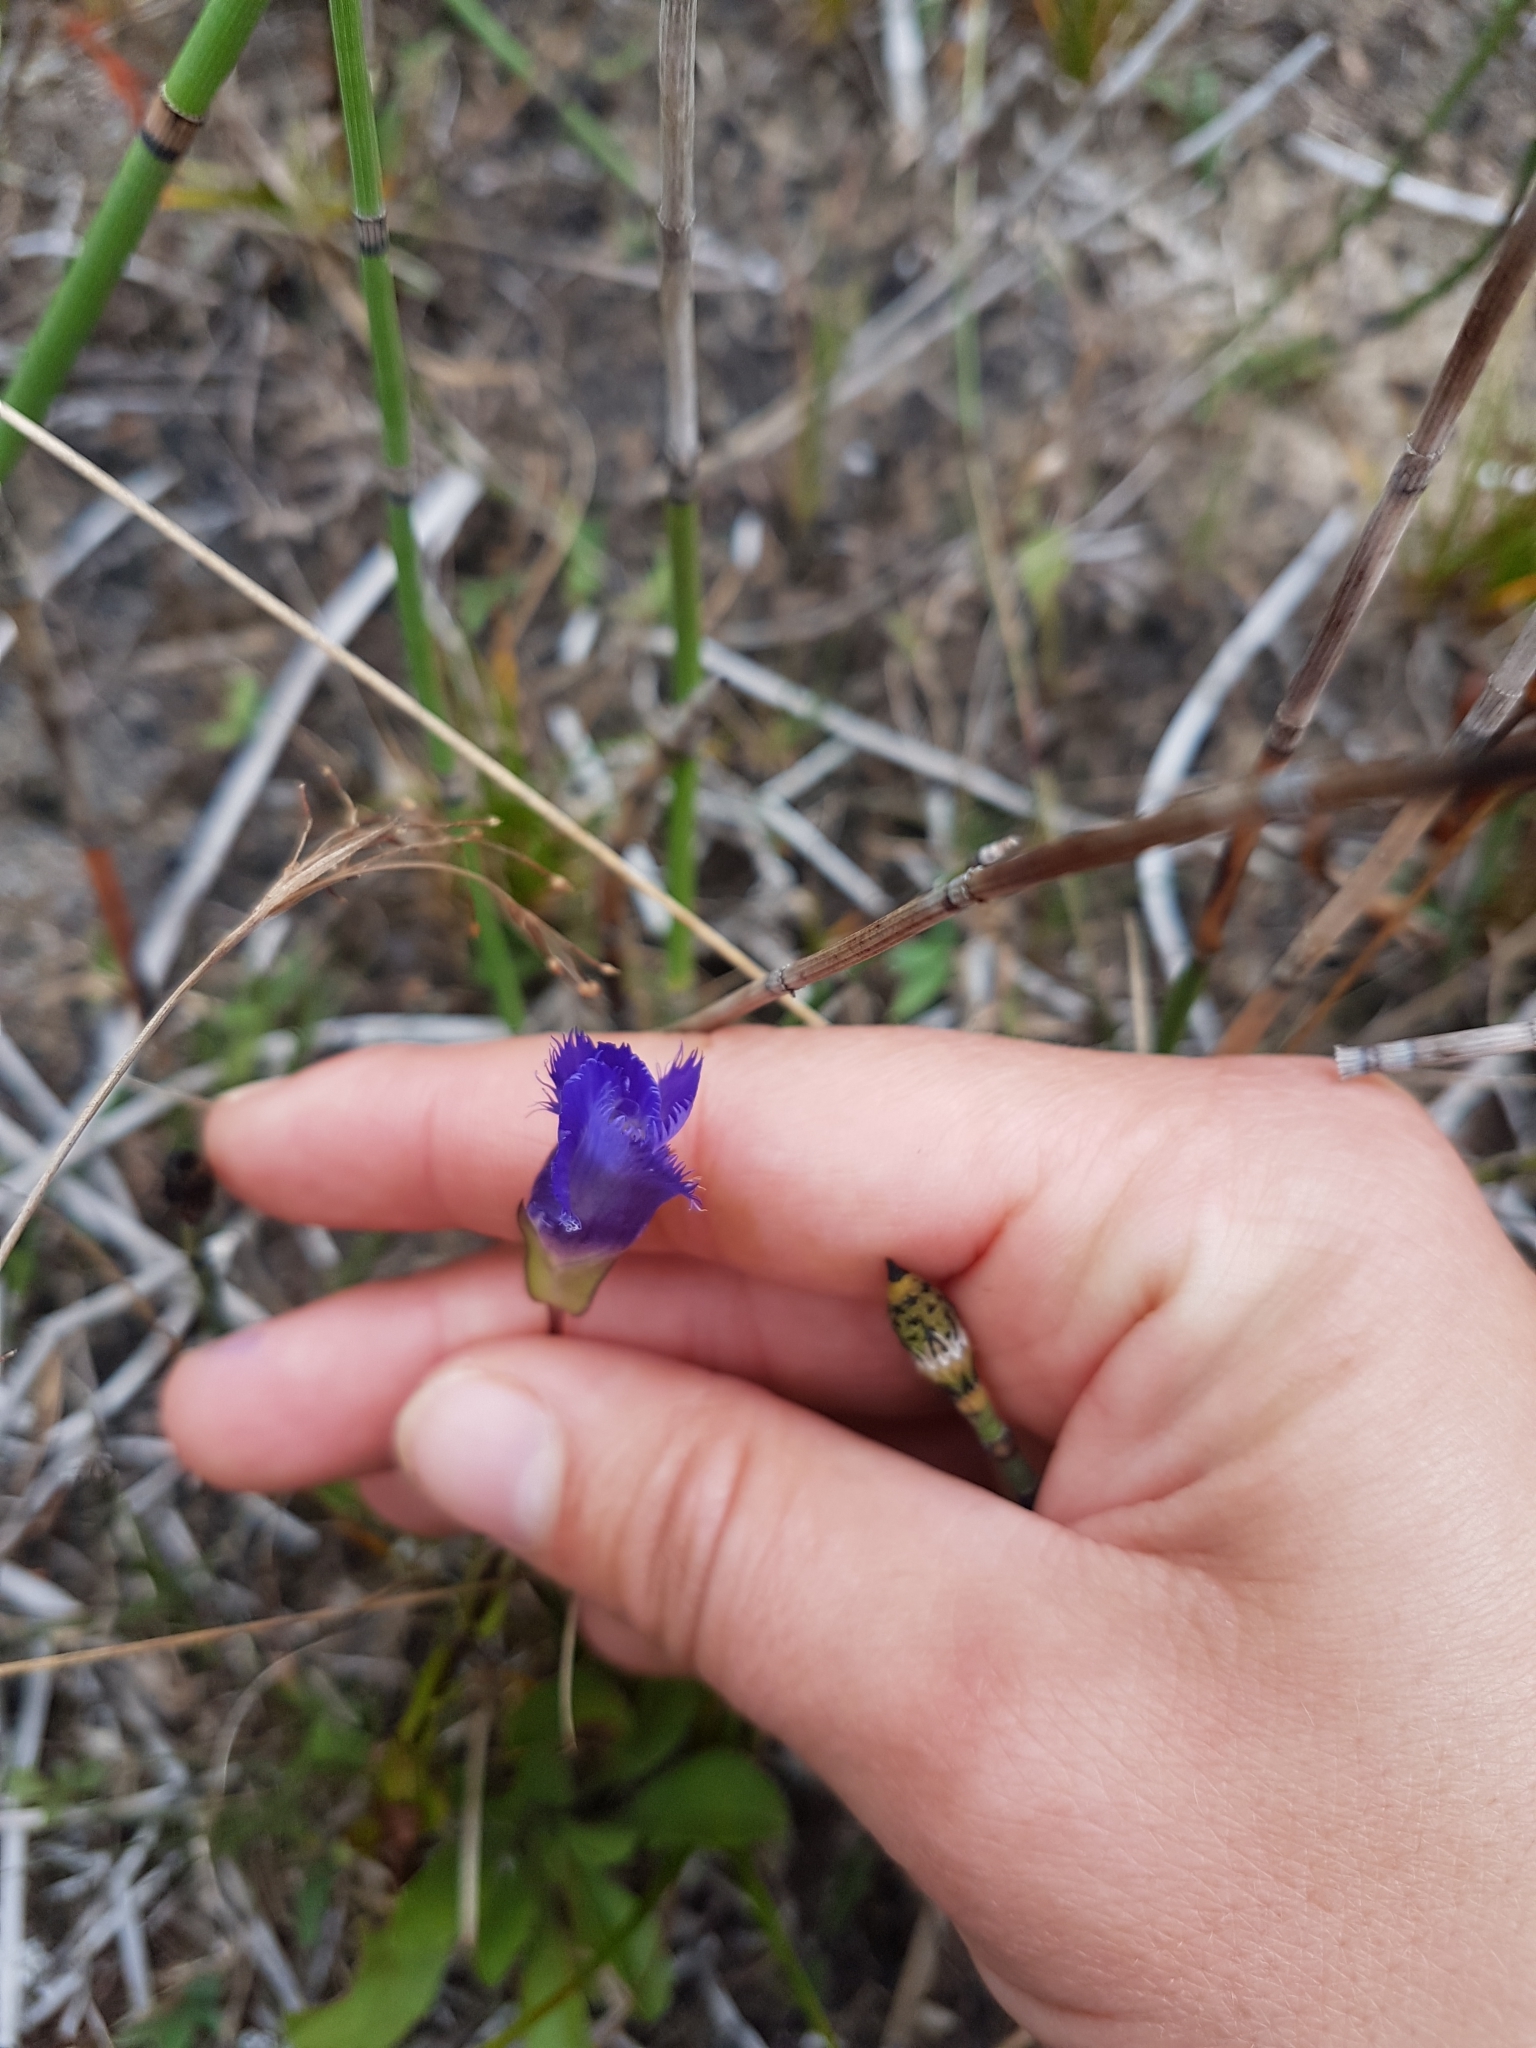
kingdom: Plantae
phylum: Tracheophyta
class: Magnoliopsida
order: Gentianales
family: Gentianaceae
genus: Gentianopsis
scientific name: Gentianopsis crinita
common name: Fringed-gentian
